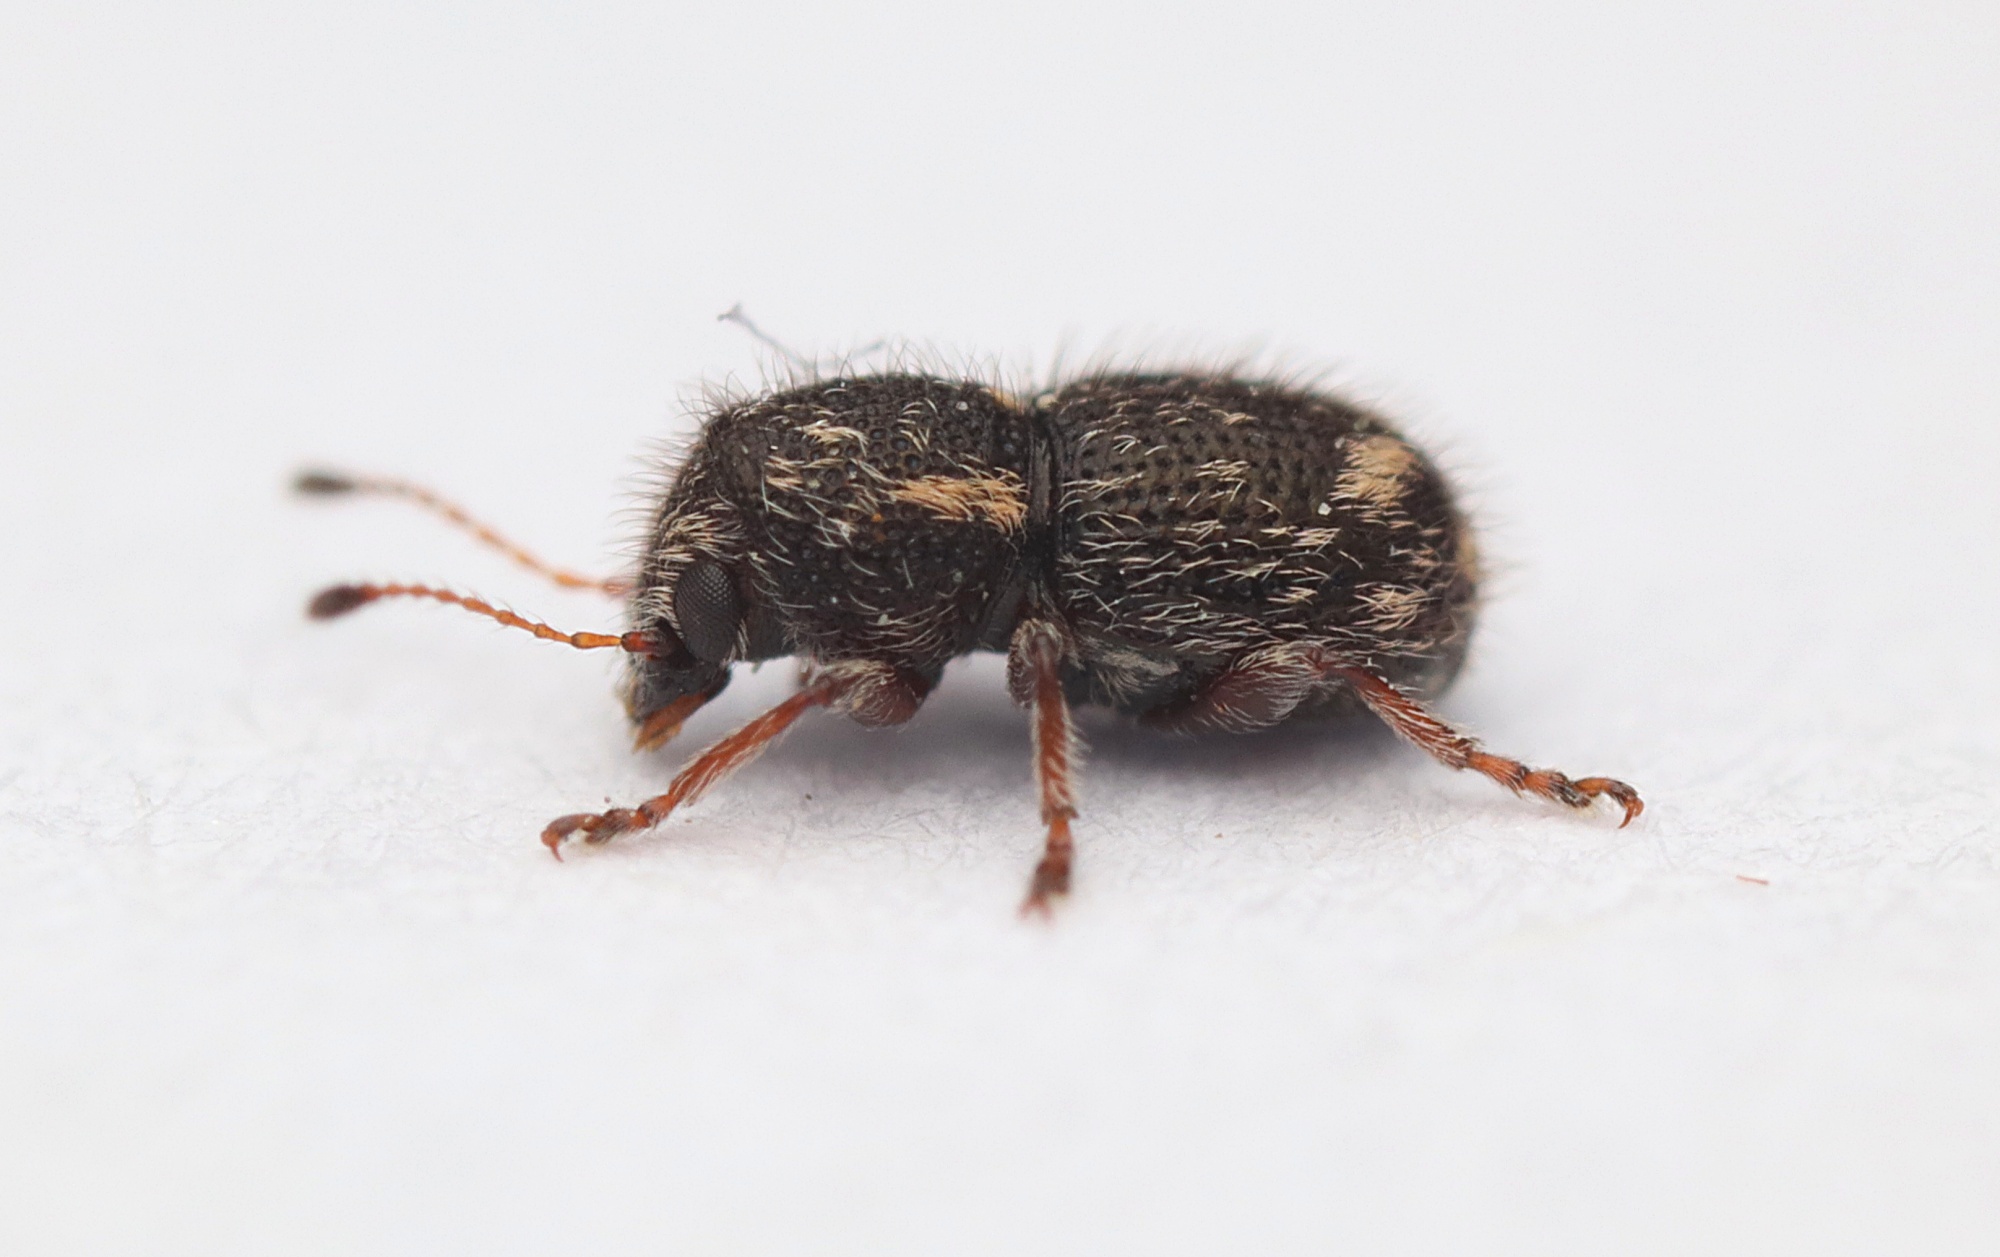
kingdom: Animalia
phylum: Arthropoda
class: Insecta
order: Coleoptera
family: Anthribidae
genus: Dasyanthribus
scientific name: Dasyanthribus purpureus
